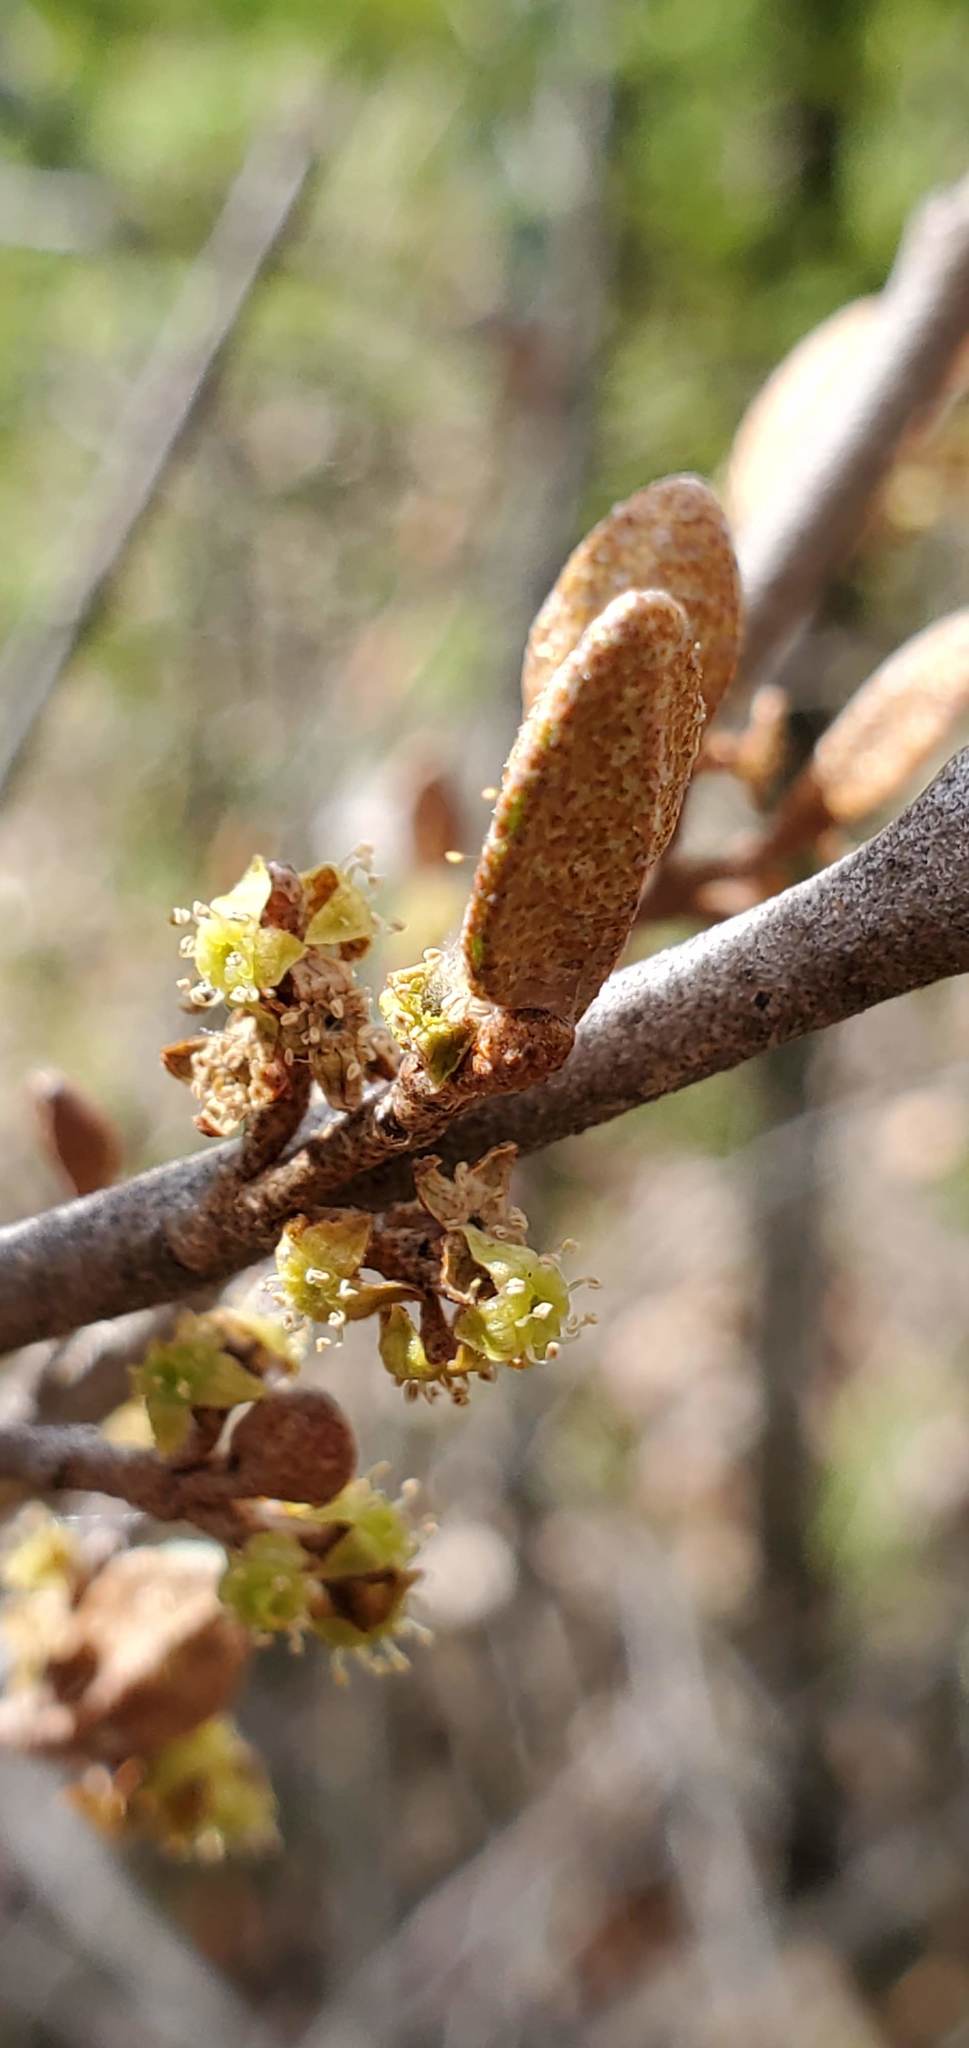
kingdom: Plantae
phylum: Tracheophyta
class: Magnoliopsida
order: Rosales
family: Elaeagnaceae
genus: Shepherdia
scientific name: Shepherdia canadensis
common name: Soapberry
